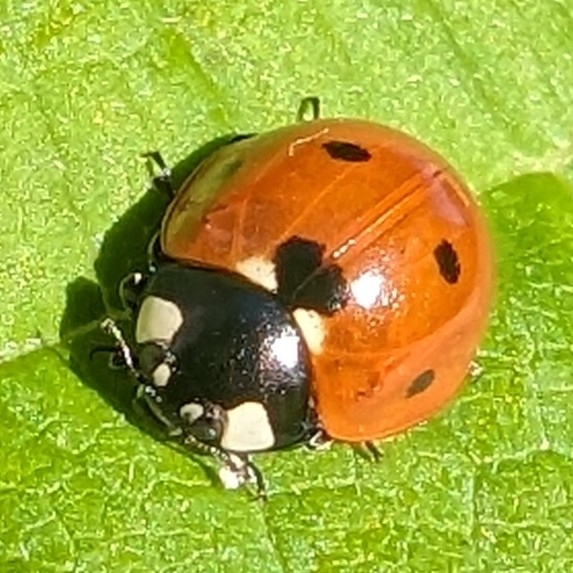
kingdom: Animalia
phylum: Arthropoda
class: Insecta
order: Coleoptera
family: Coccinellidae
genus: Coccinella
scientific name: Coccinella septempunctata
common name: Sevenspotted lady beetle
